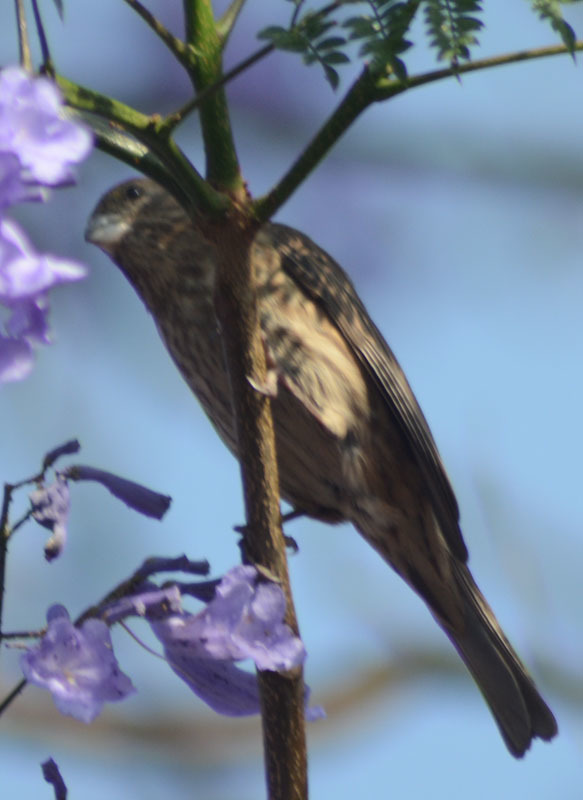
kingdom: Animalia
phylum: Chordata
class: Aves
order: Passeriformes
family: Fringillidae
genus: Haemorhous
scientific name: Haemorhous mexicanus
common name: House finch
